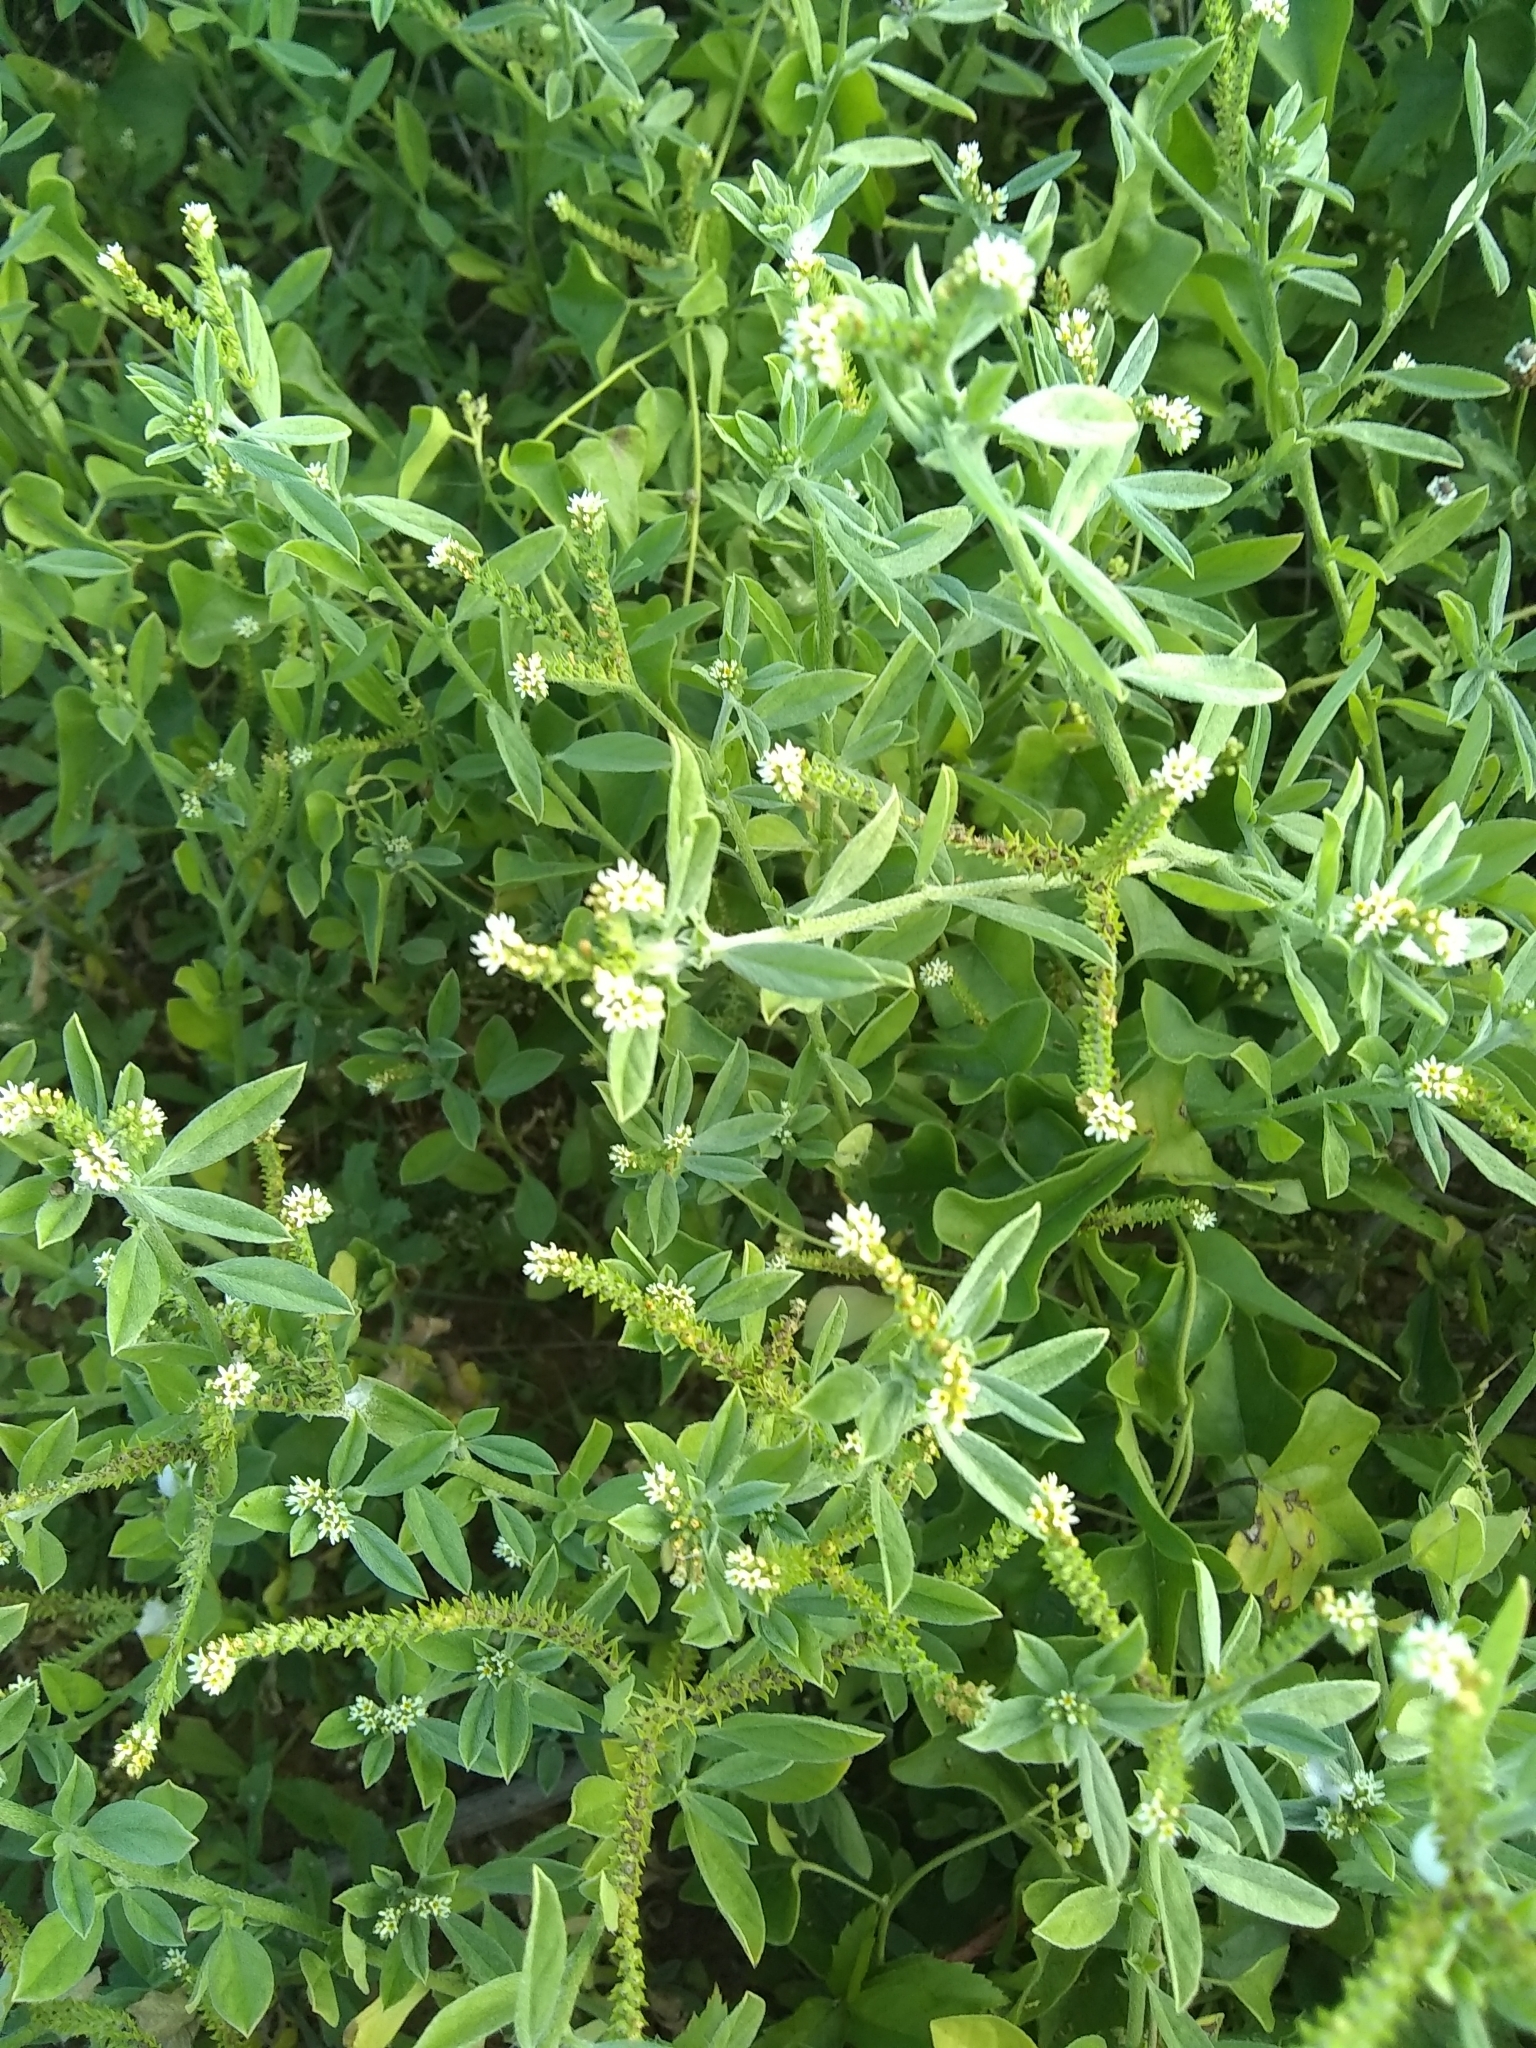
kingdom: Plantae
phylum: Tracheophyta
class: Magnoliopsida
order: Boraginales
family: Heliotropiaceae
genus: Euploca
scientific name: Euploca procumbens
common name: Fourspike heliotrope
